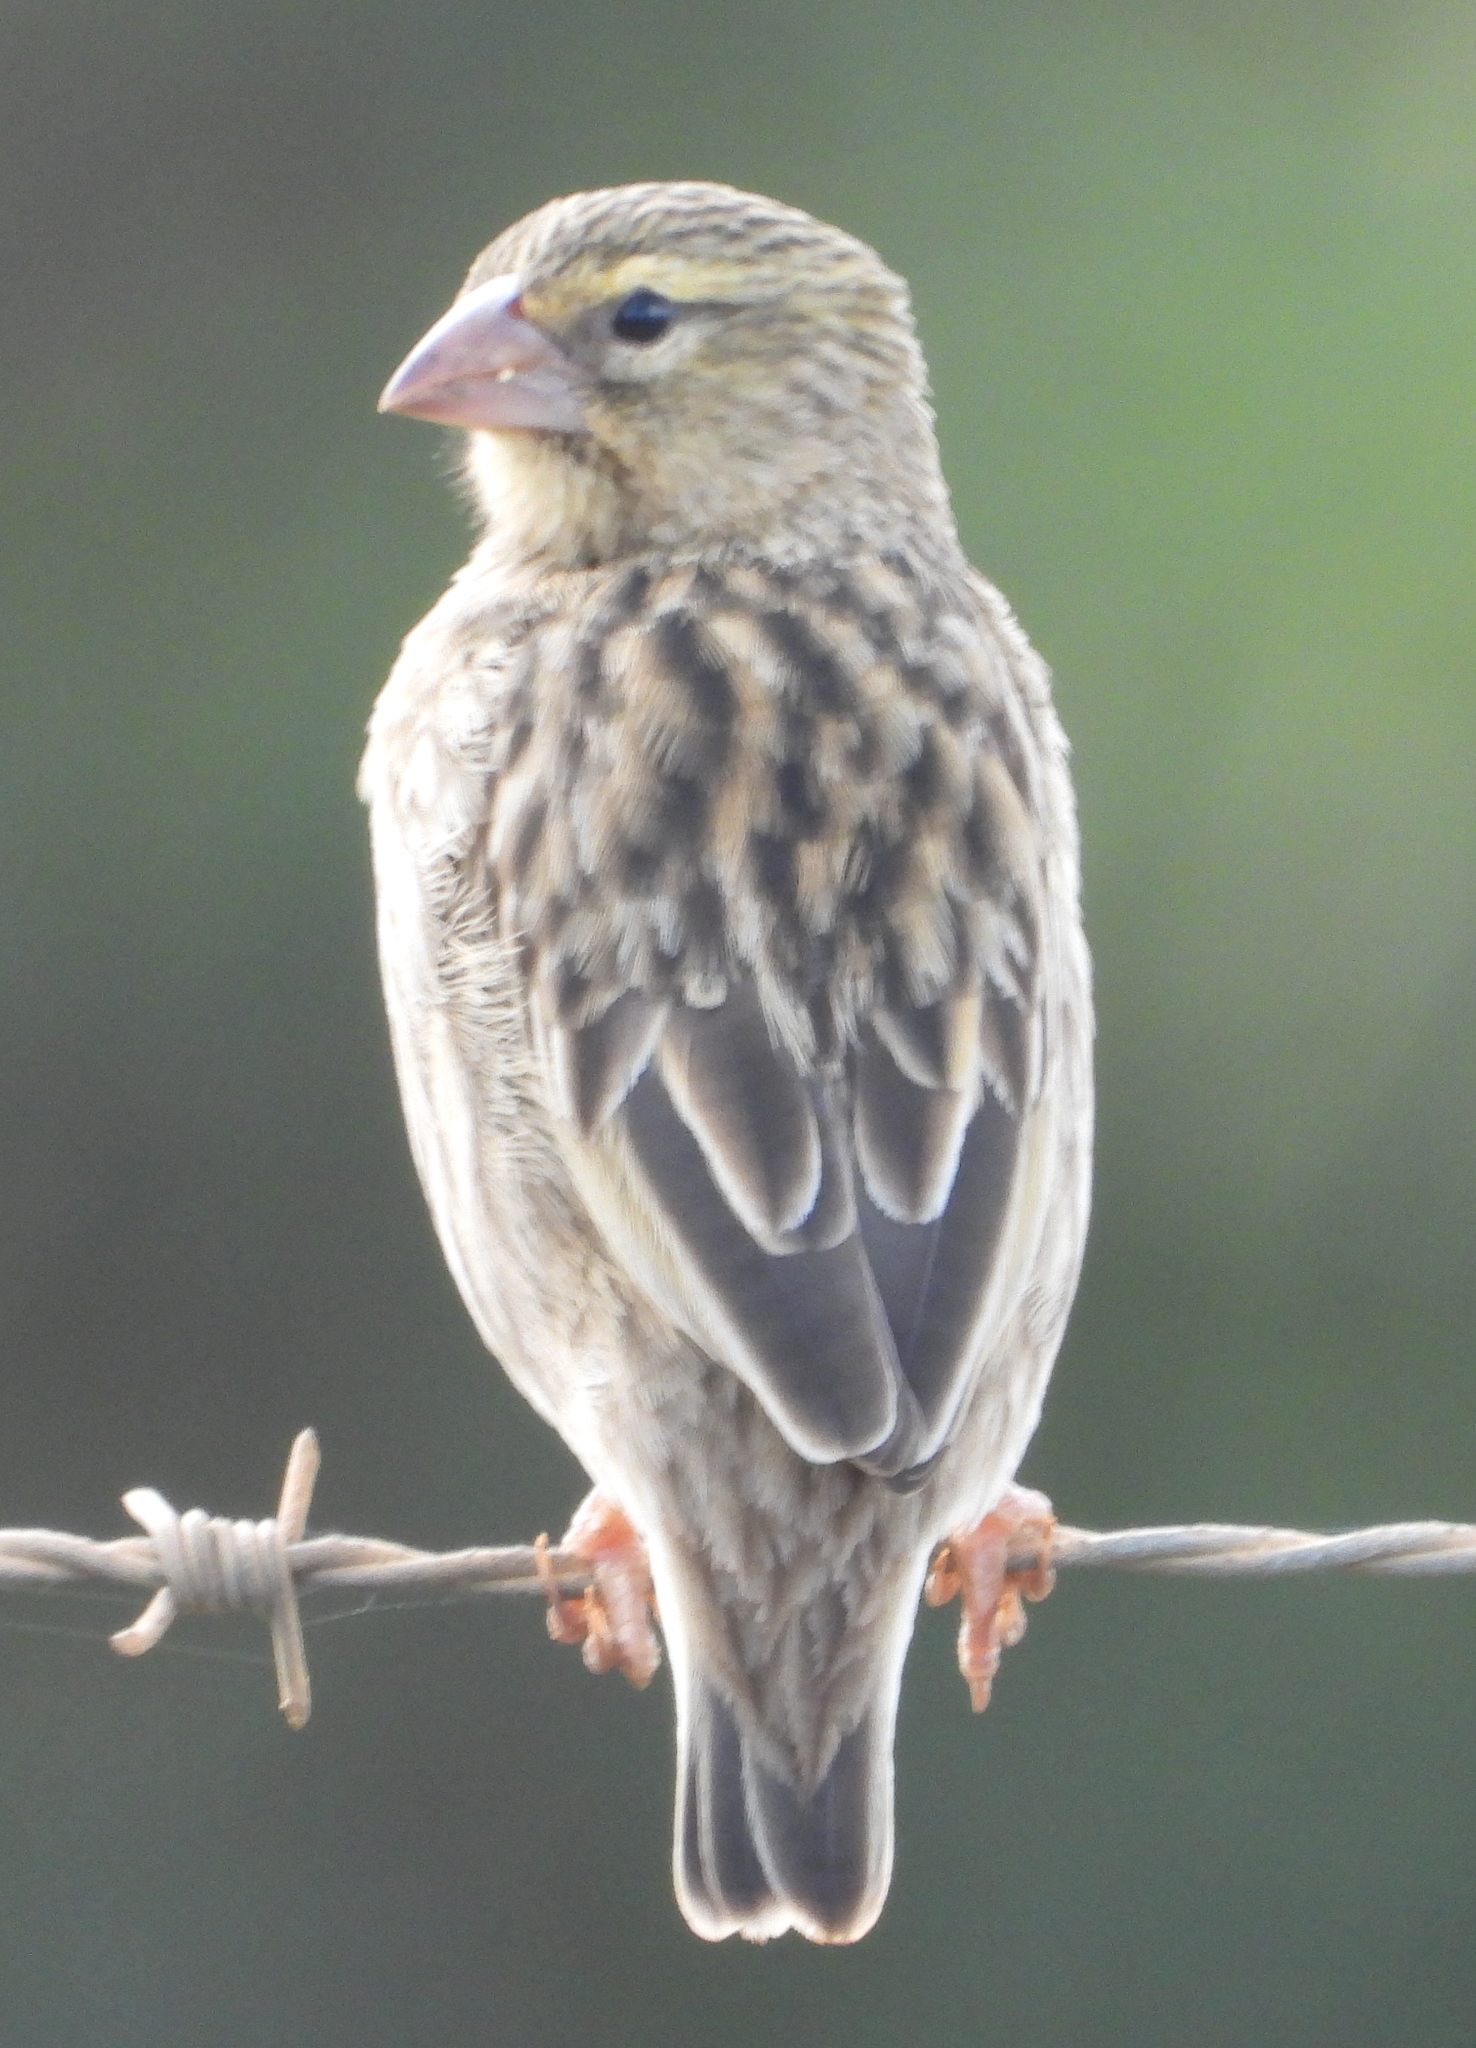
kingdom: Animalia
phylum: Chordata
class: Aves
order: Passeriformes
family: Ploceidae
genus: Euplectes
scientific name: Euplectes orix
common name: Southern red bishop
